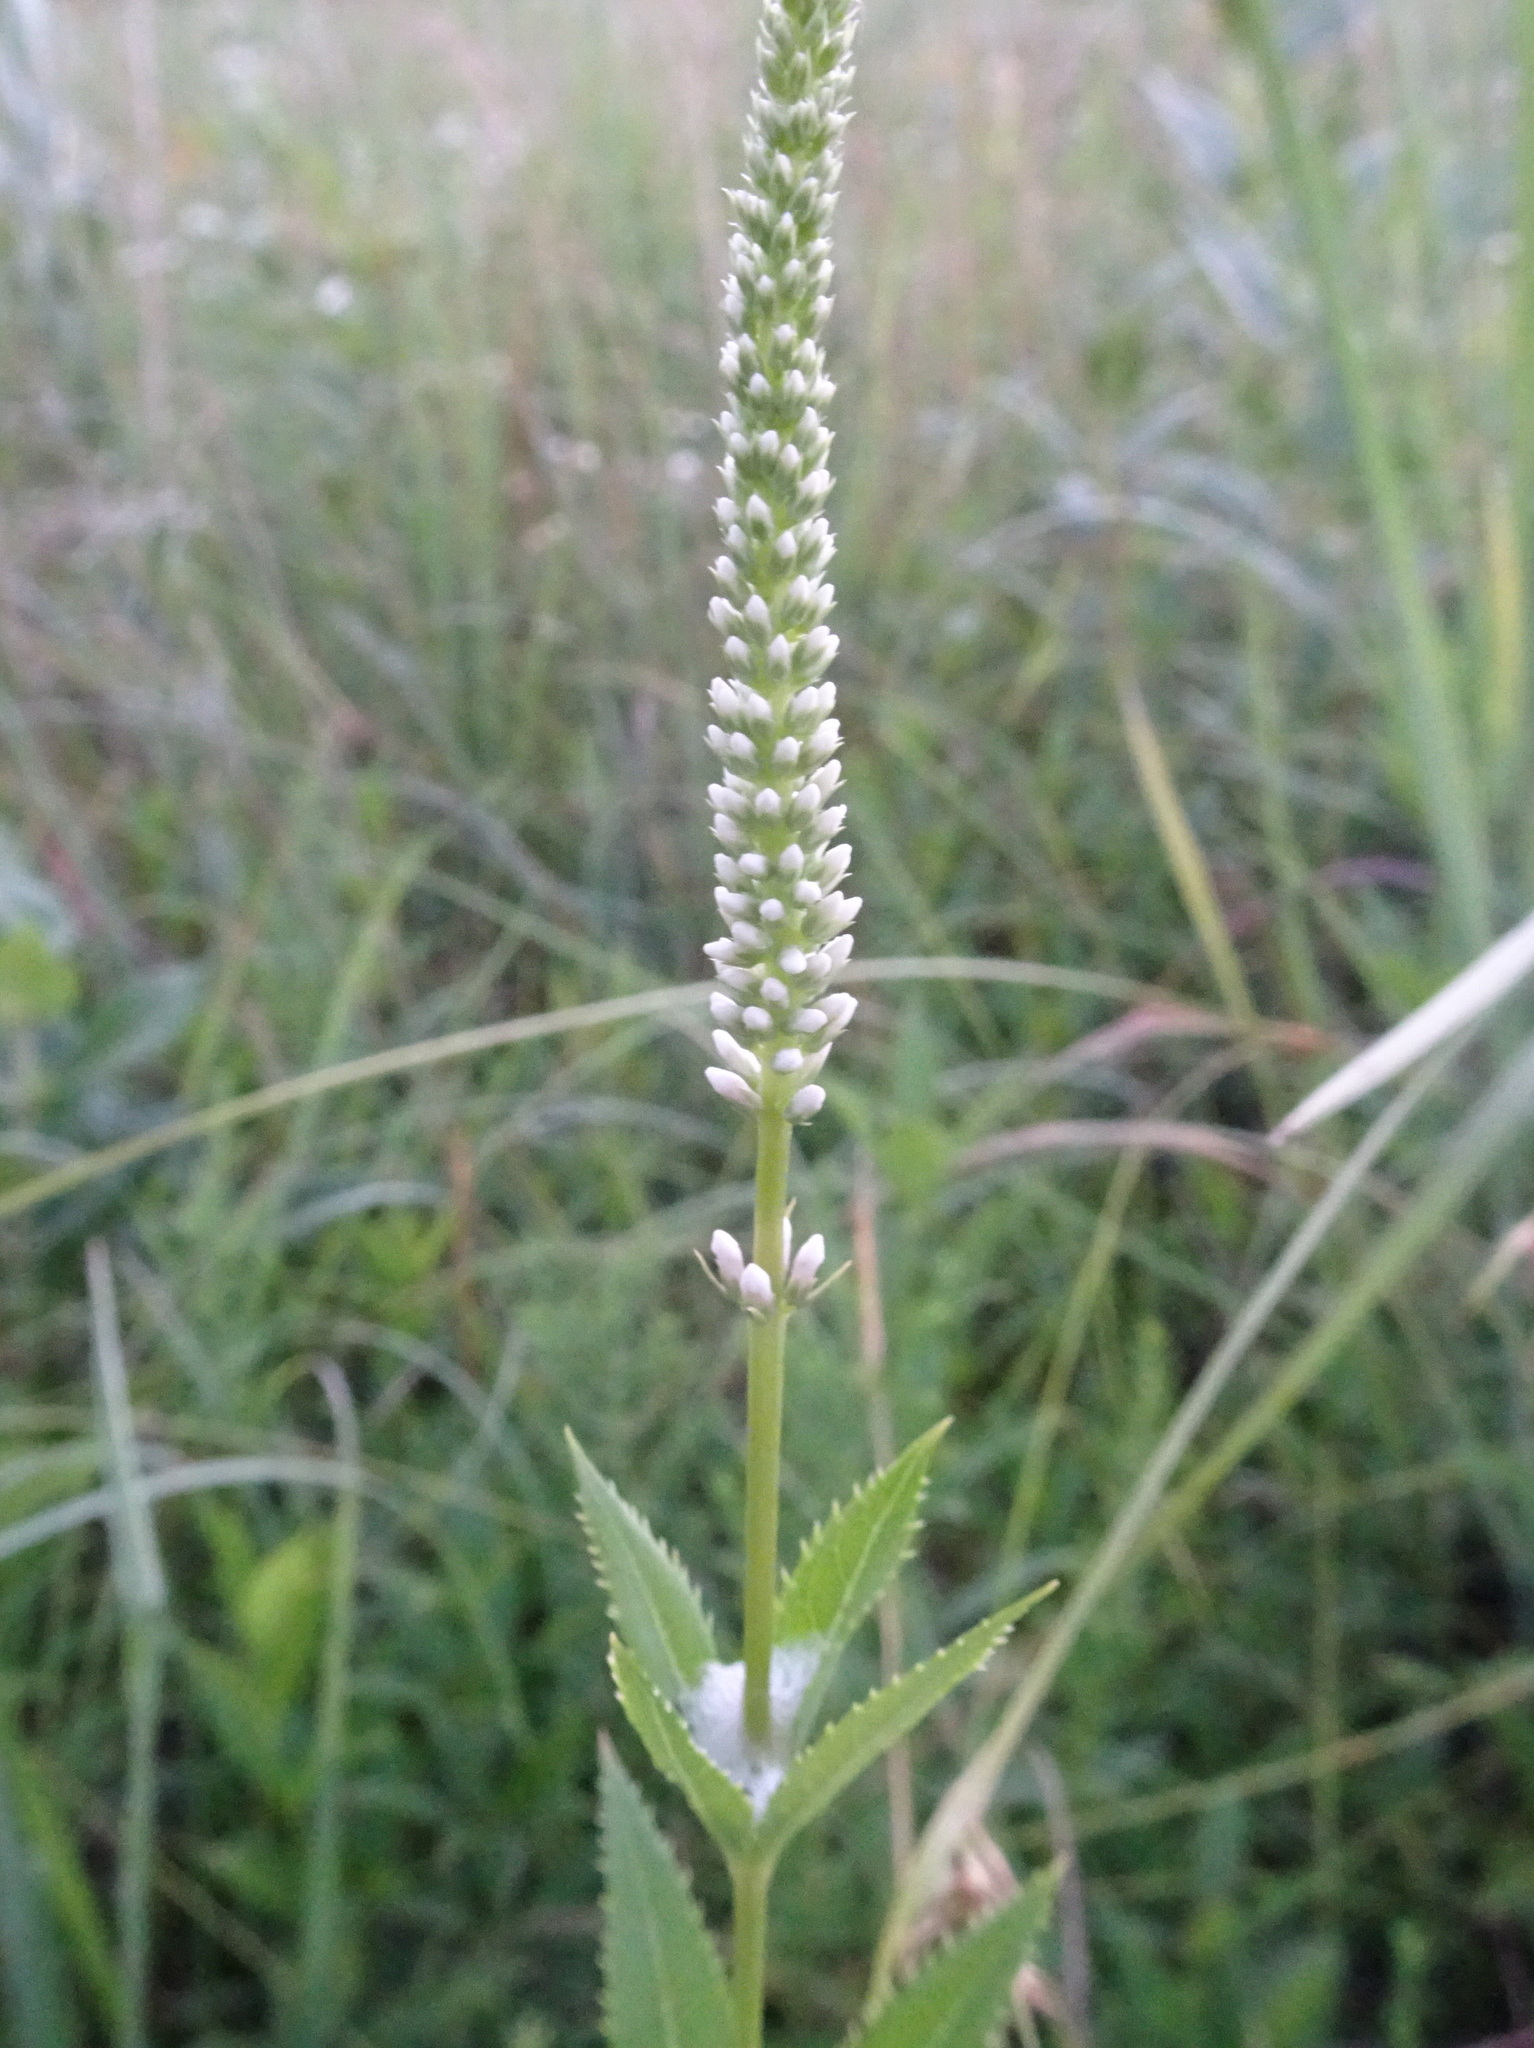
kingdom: Plantae
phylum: Tracheophyta
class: Magnoliopsida
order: Lamiales
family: Plantaginaceae
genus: Veronicastrum
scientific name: Veronicastrum virginicum
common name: Blackroot
